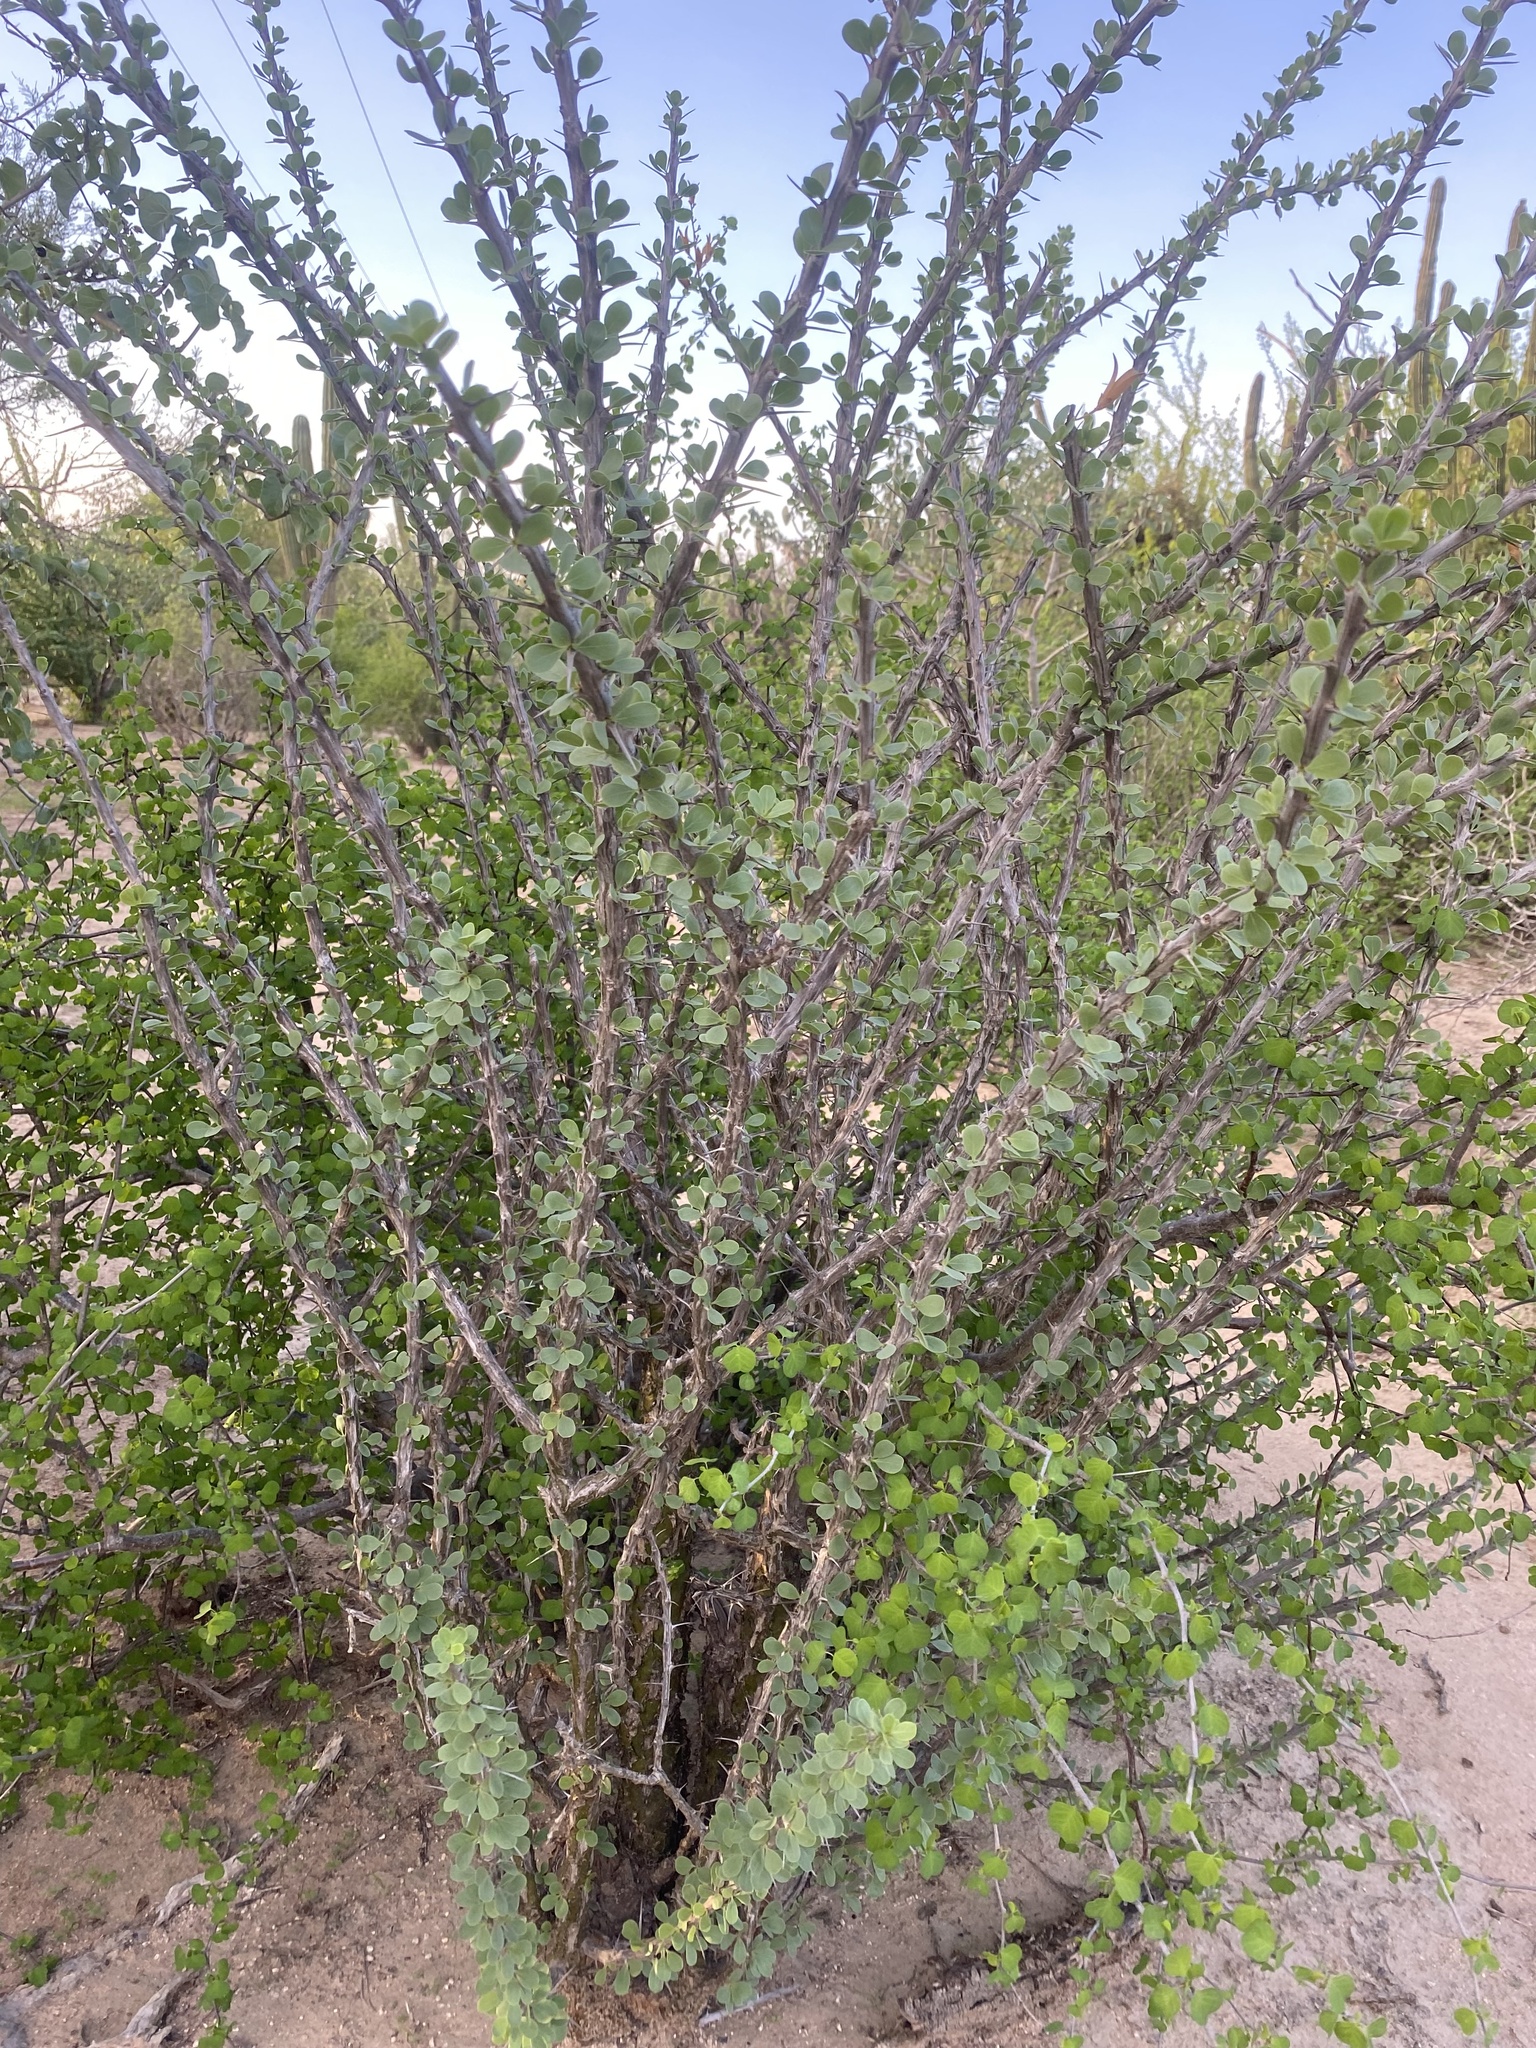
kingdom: Plantae
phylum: Tracheophyta
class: Magnoliopsida
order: Ericales
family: Fouquieriaceae
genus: Fouquieria
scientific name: Fouquieria diguetii
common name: Adam's tree
